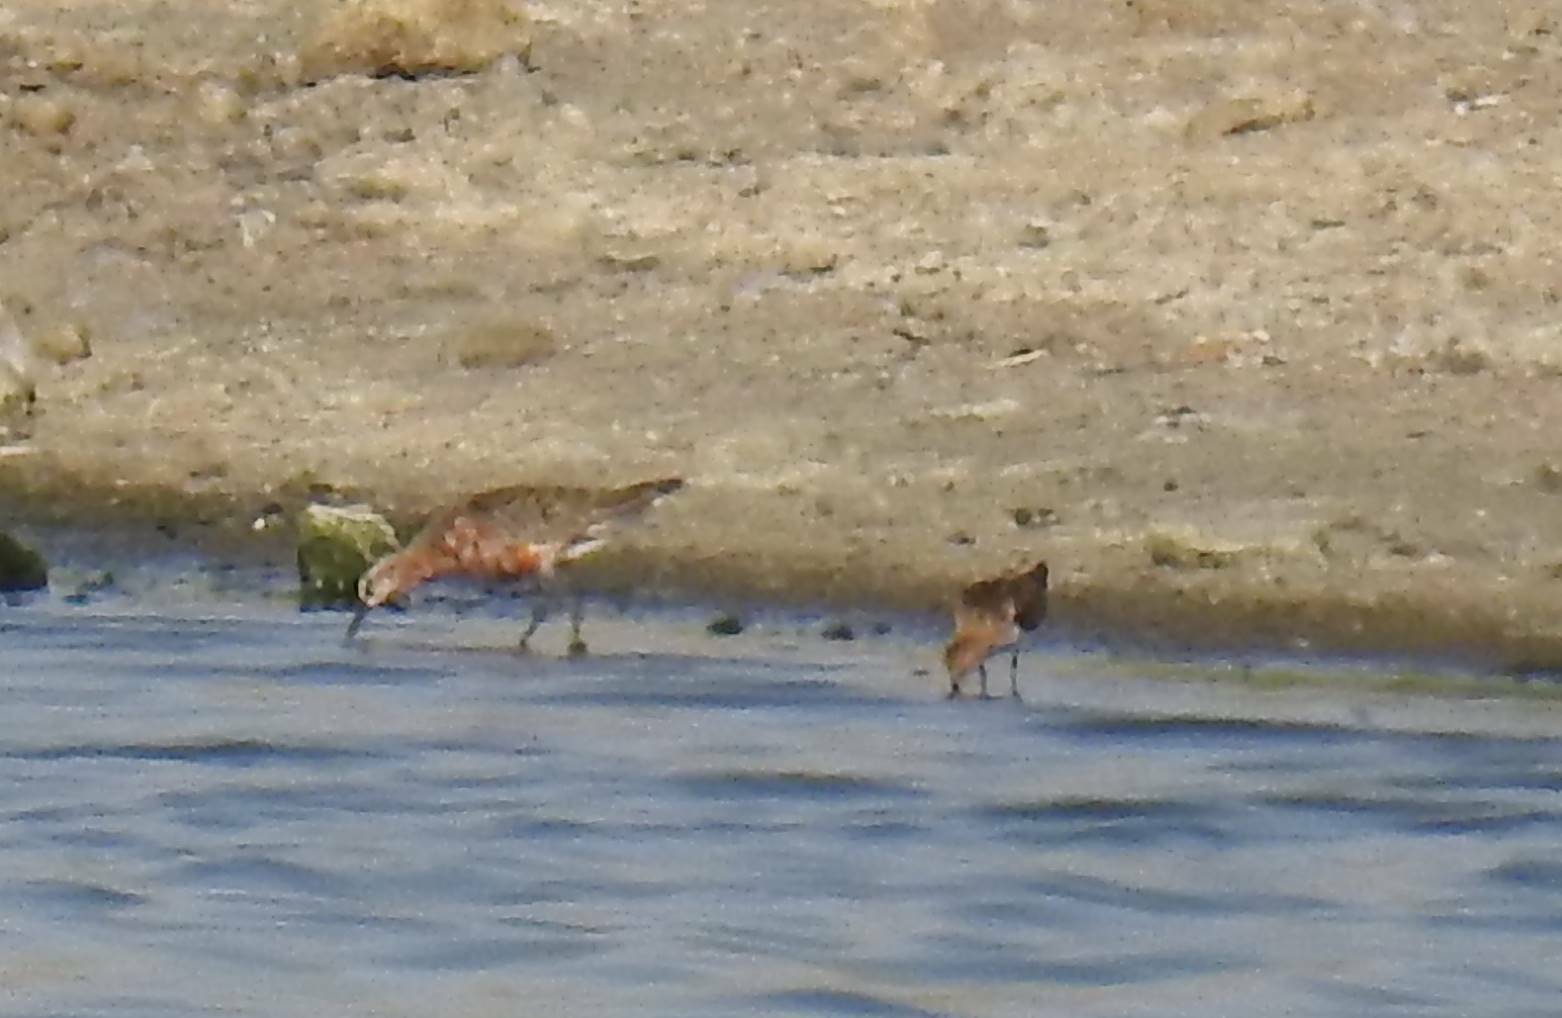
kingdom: Animalia
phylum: Chordata
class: Aves
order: Charadriiformes
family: Scolopacidae
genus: Calidris
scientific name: Calidris ferruginea
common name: Curlew sandpiper
